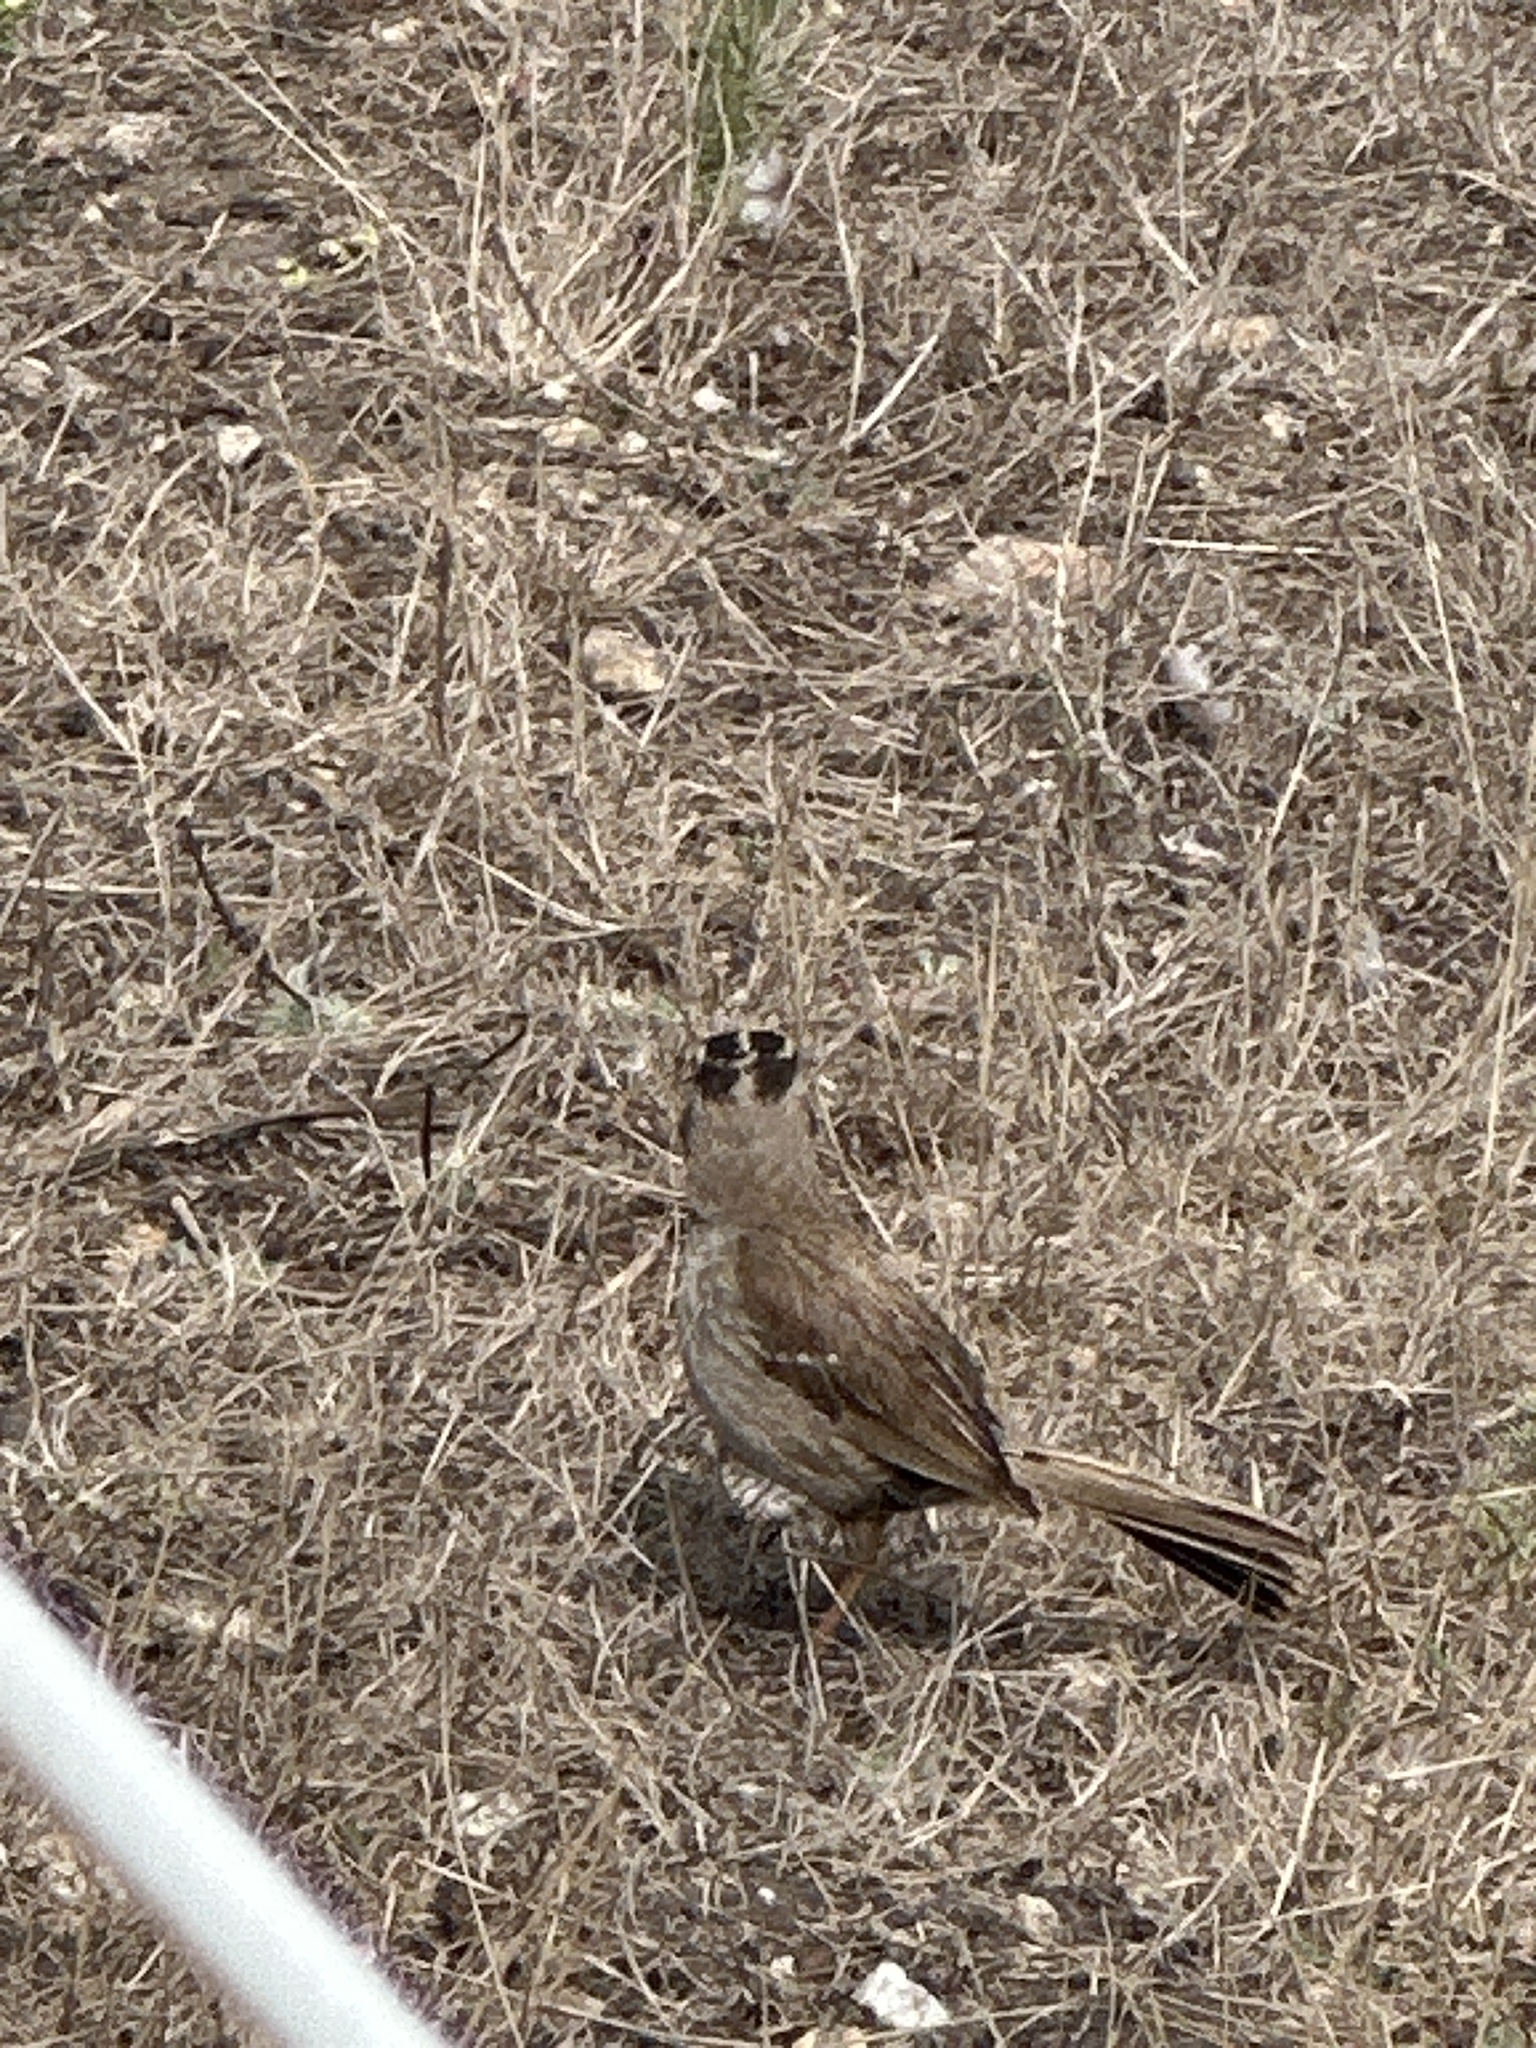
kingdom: Animalia
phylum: Chordata
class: Aves
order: Passeriformes
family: Passerellidae
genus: Zonotrichia
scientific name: Zonotrichia leucophrys
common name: White-crowned sparrow
